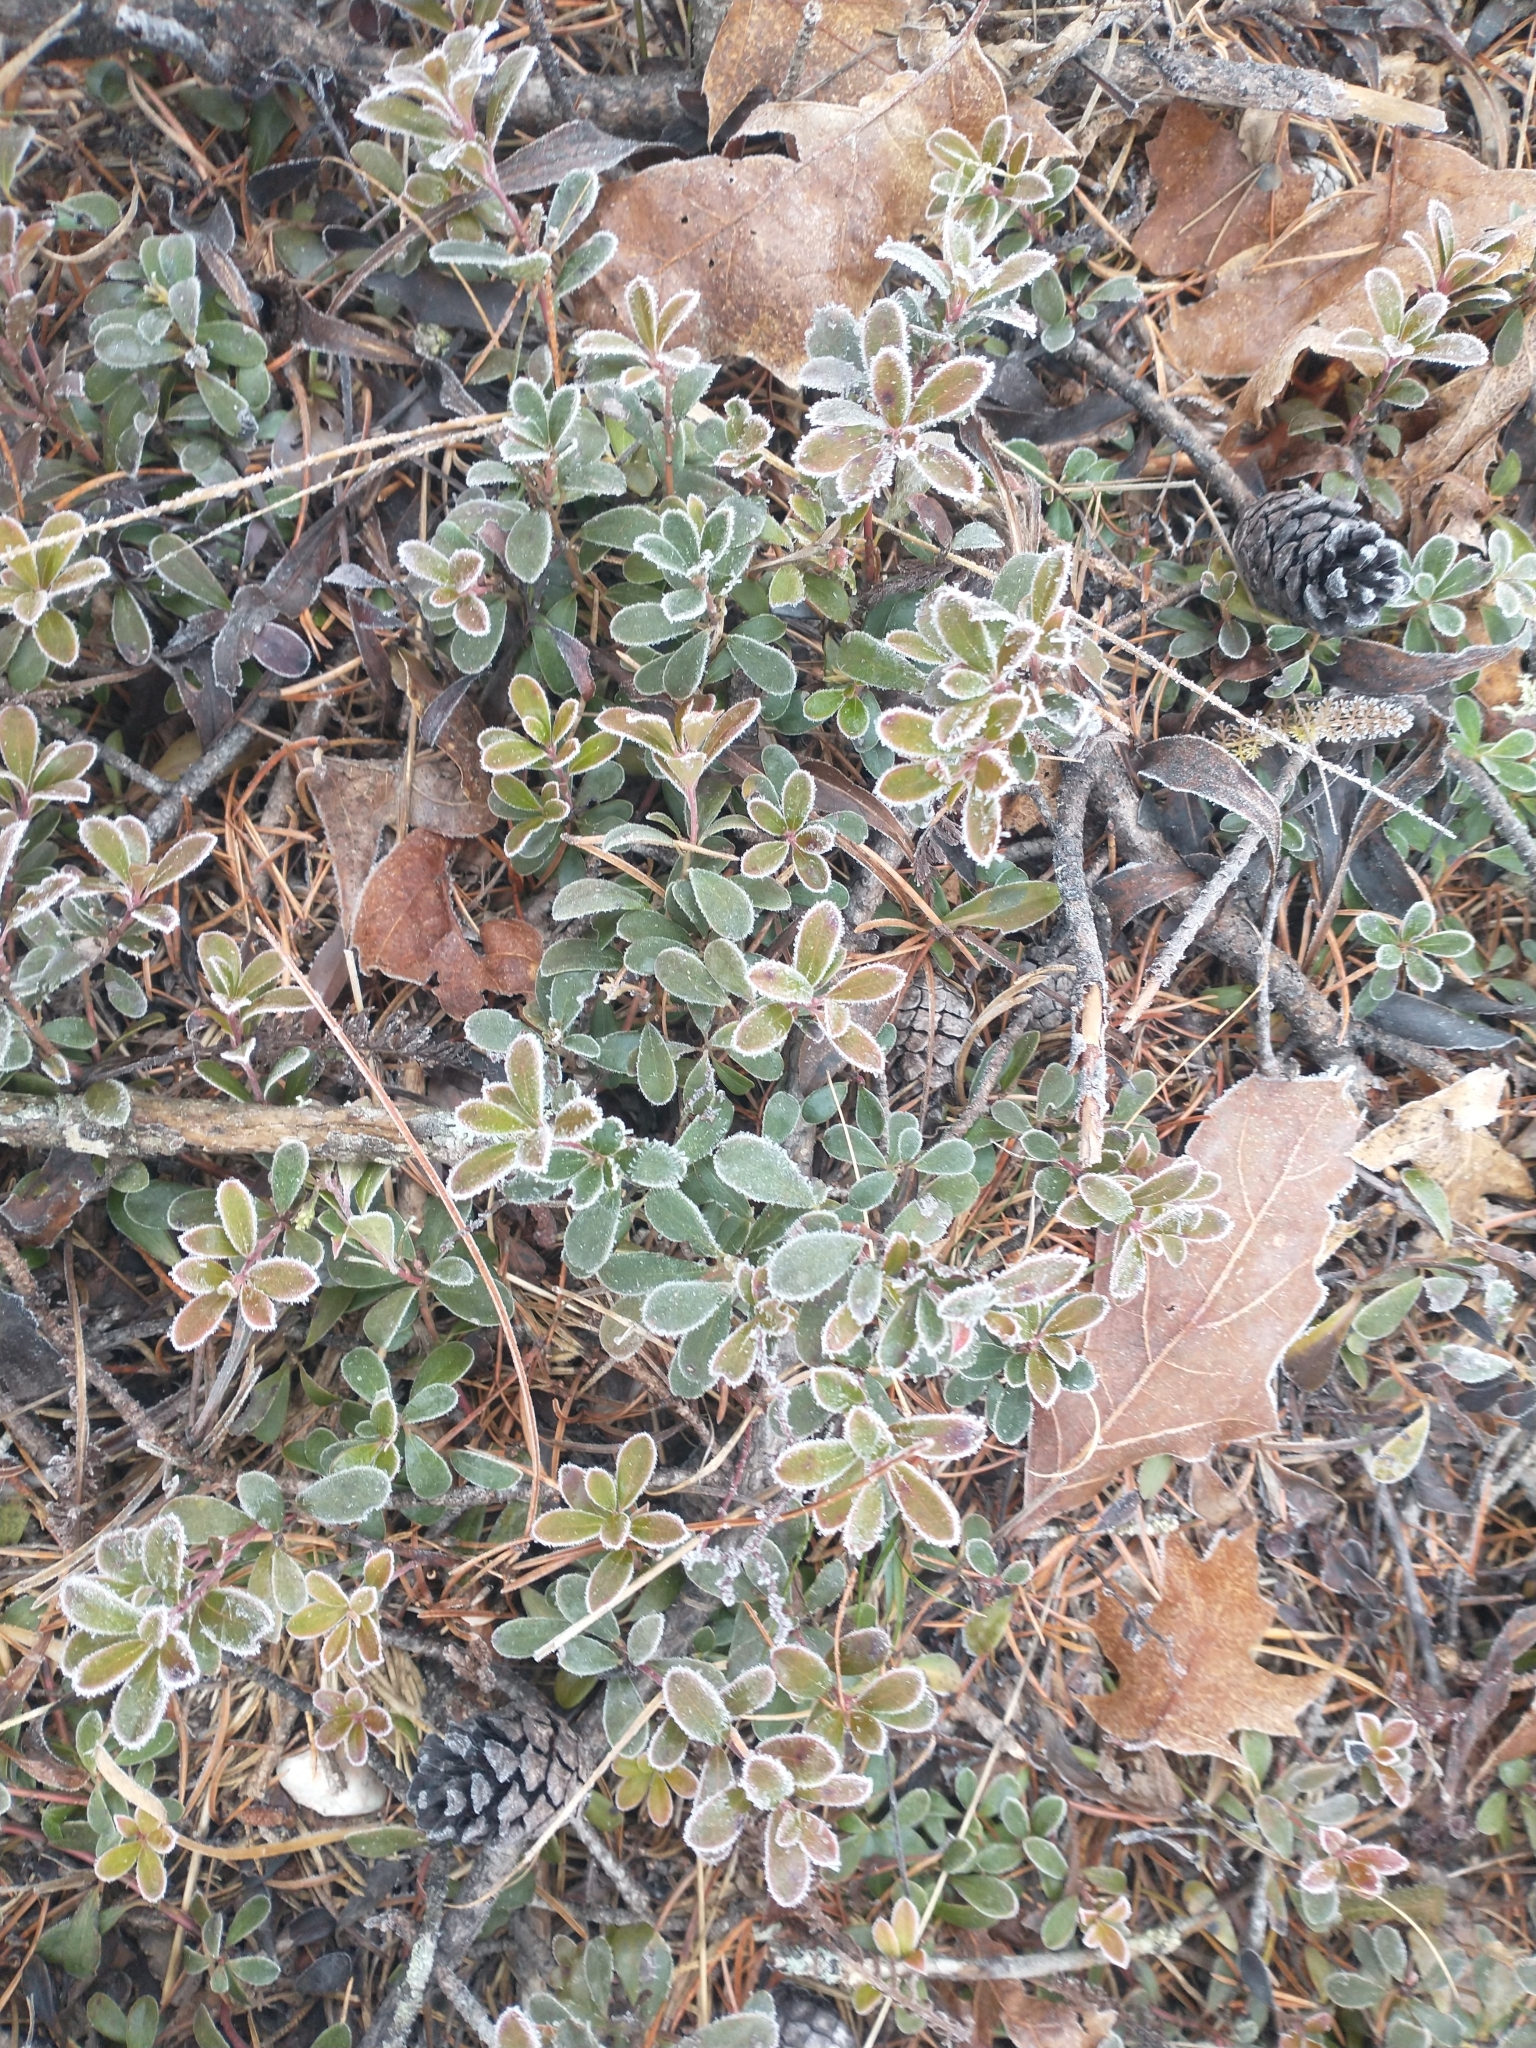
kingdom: Plantae
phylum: Tracheophyta
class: Magnoliopsida
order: Ericales
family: Ericaceae
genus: Arctostaphylos
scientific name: Arctostaphylos uva-ursi
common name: Bearberry
